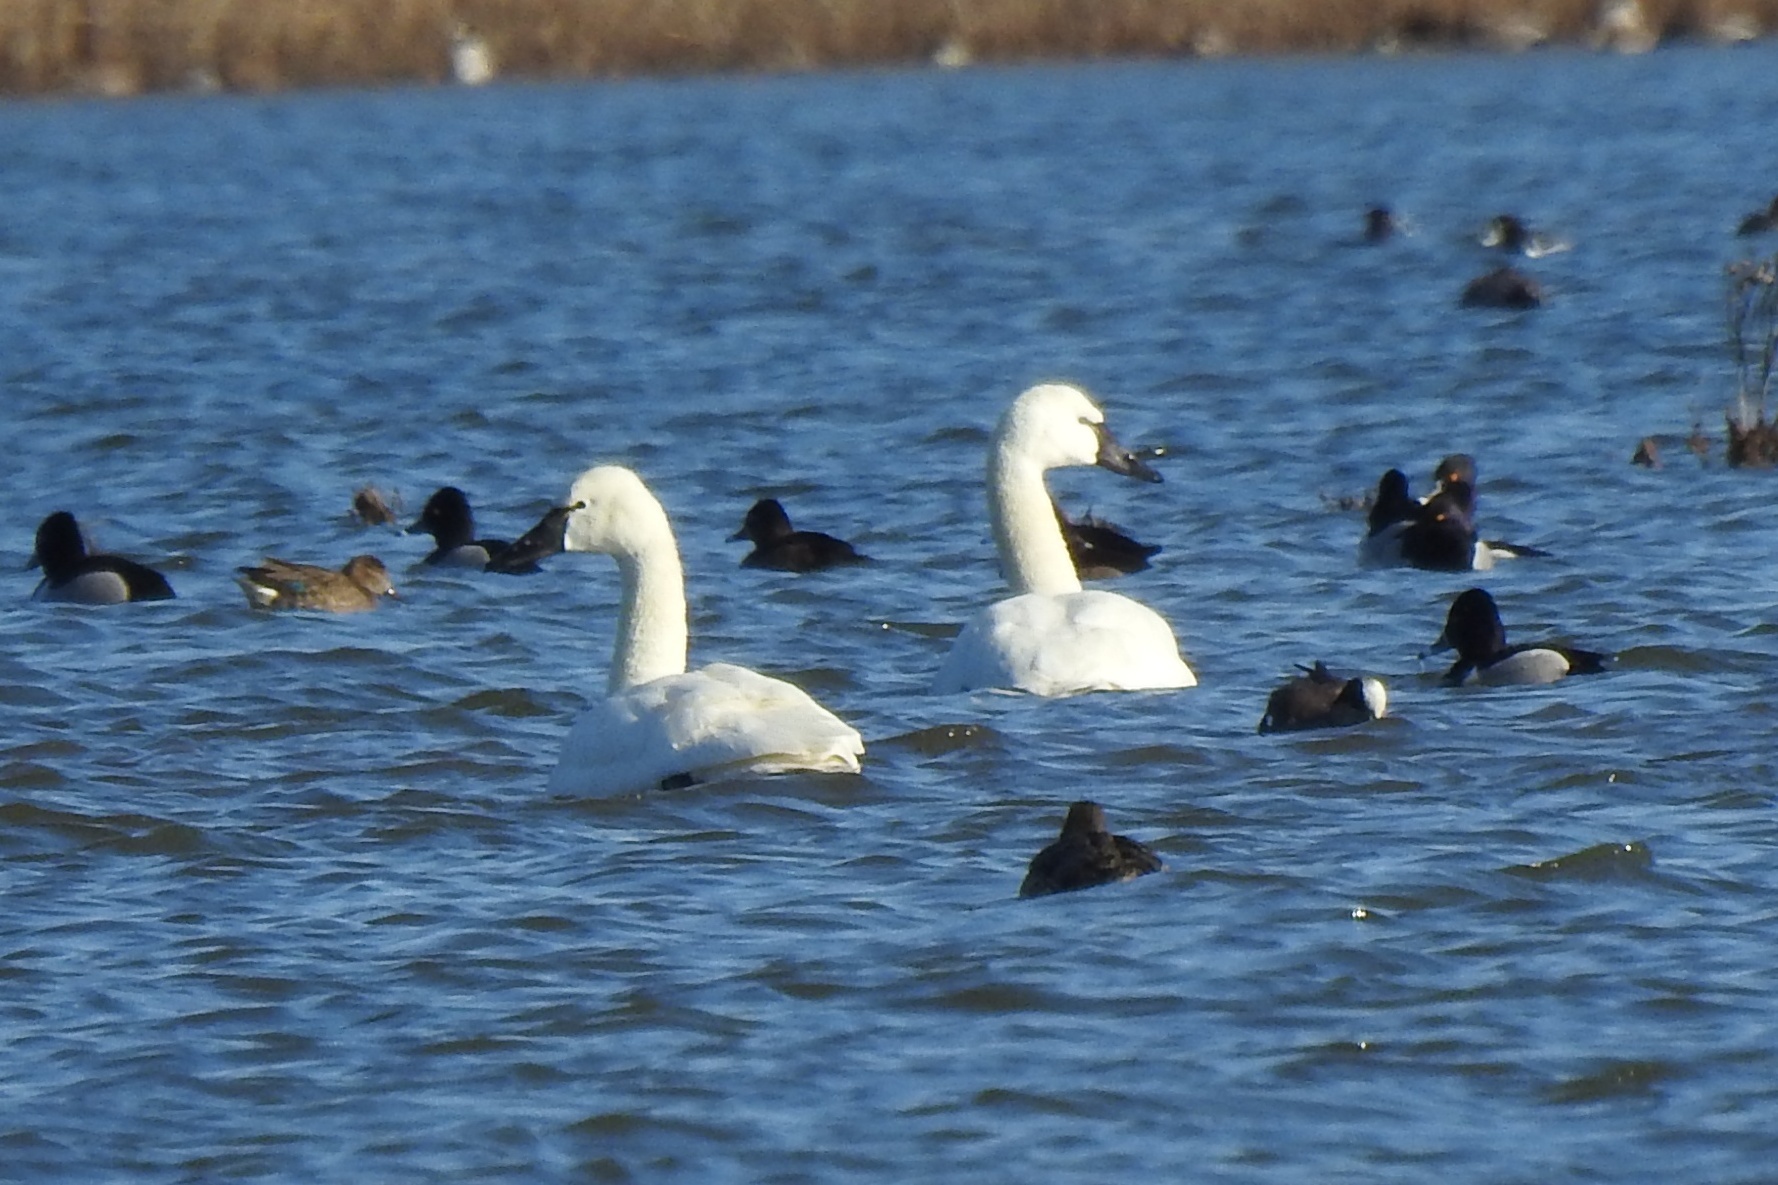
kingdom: Animalia
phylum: Chordata
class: Aves
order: Anseriformes
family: Anatidae
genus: Cygnus
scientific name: Cygnus columbianus
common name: Tundra swan
